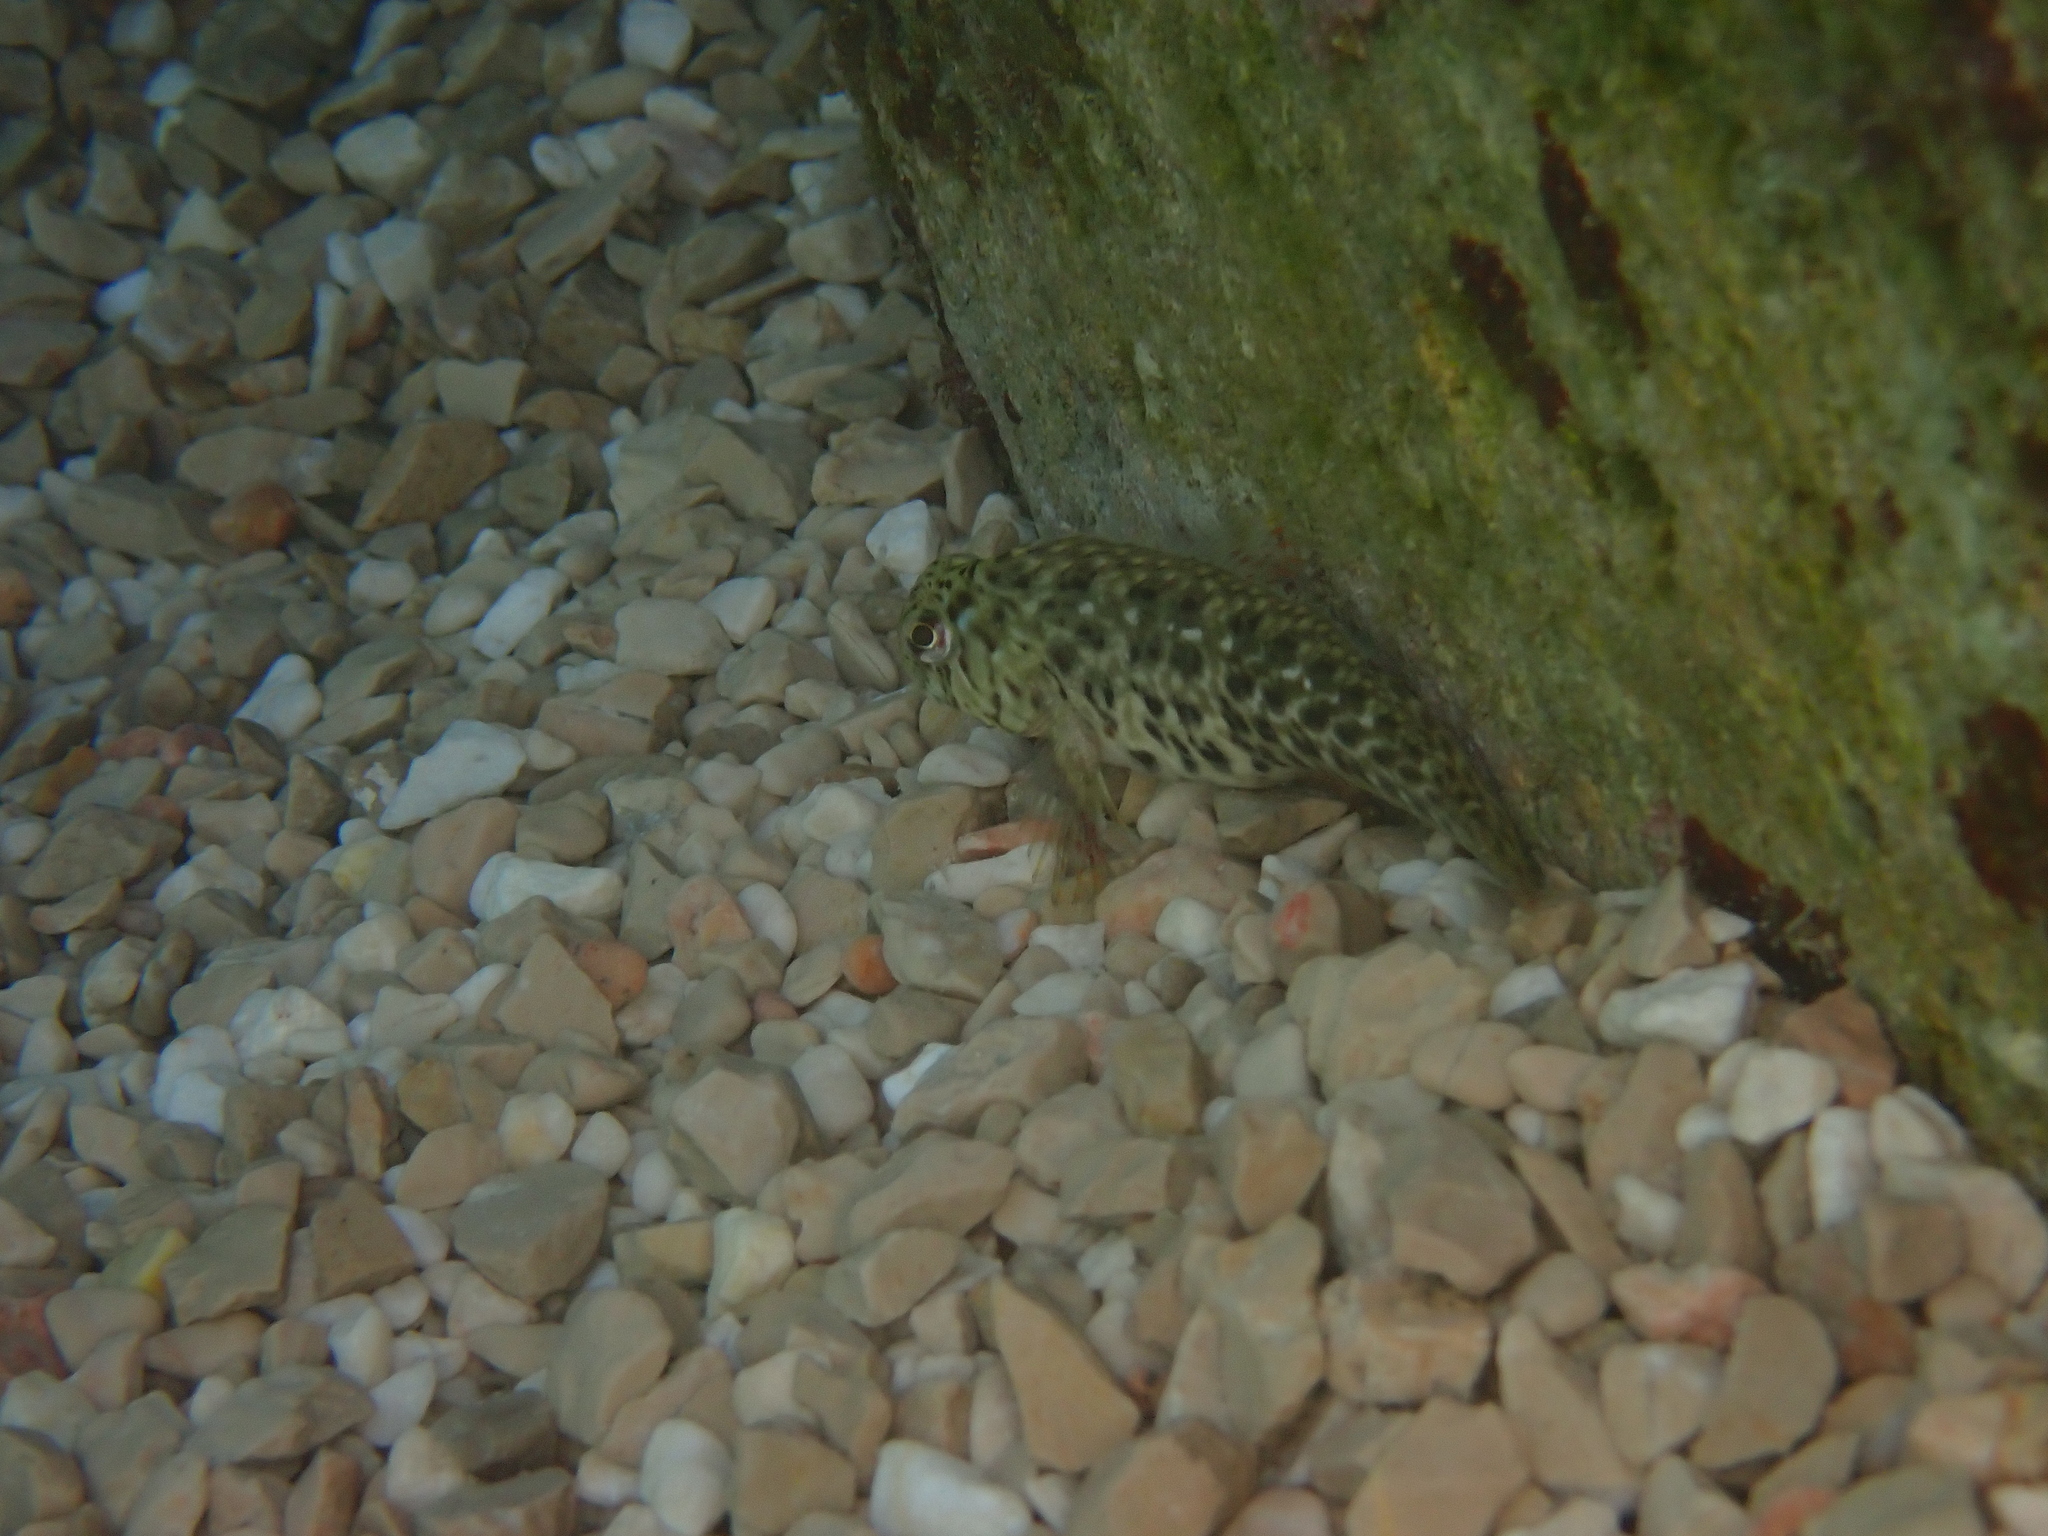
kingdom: Animalia
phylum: Chordata
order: Perciformes
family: Blenniidae
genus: Parablennius
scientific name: Parablennius sanguinolentus
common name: Black sea blenny
